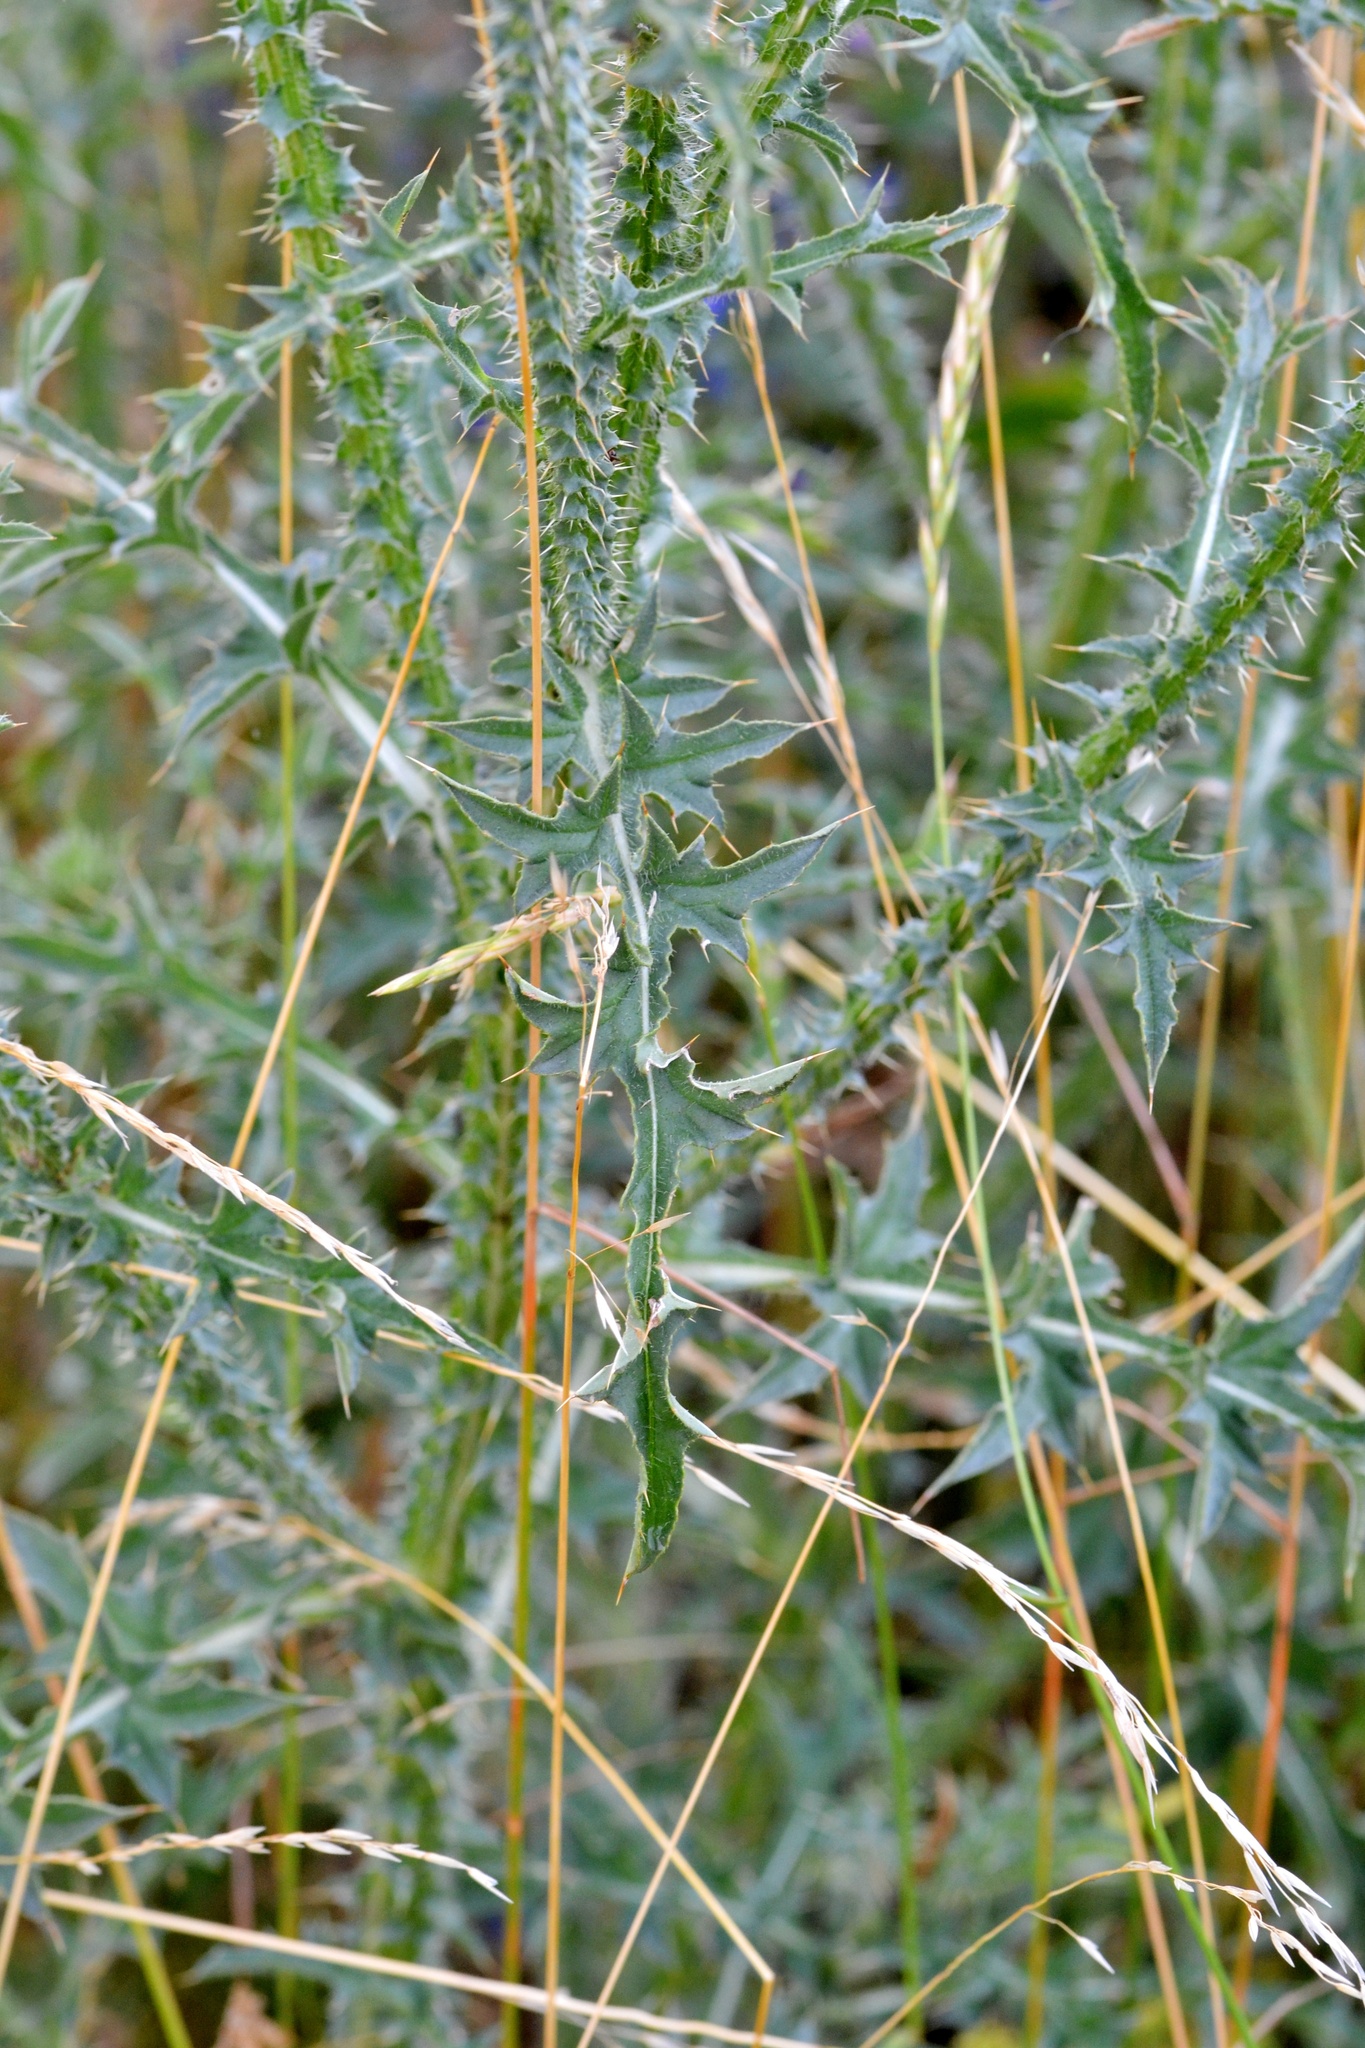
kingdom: Plantae
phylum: Tracheophyta
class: Magnoliopsida
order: Asterales
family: Asteraceae
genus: Carduus
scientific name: Carduus acanthoides
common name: Plumeless thistle
